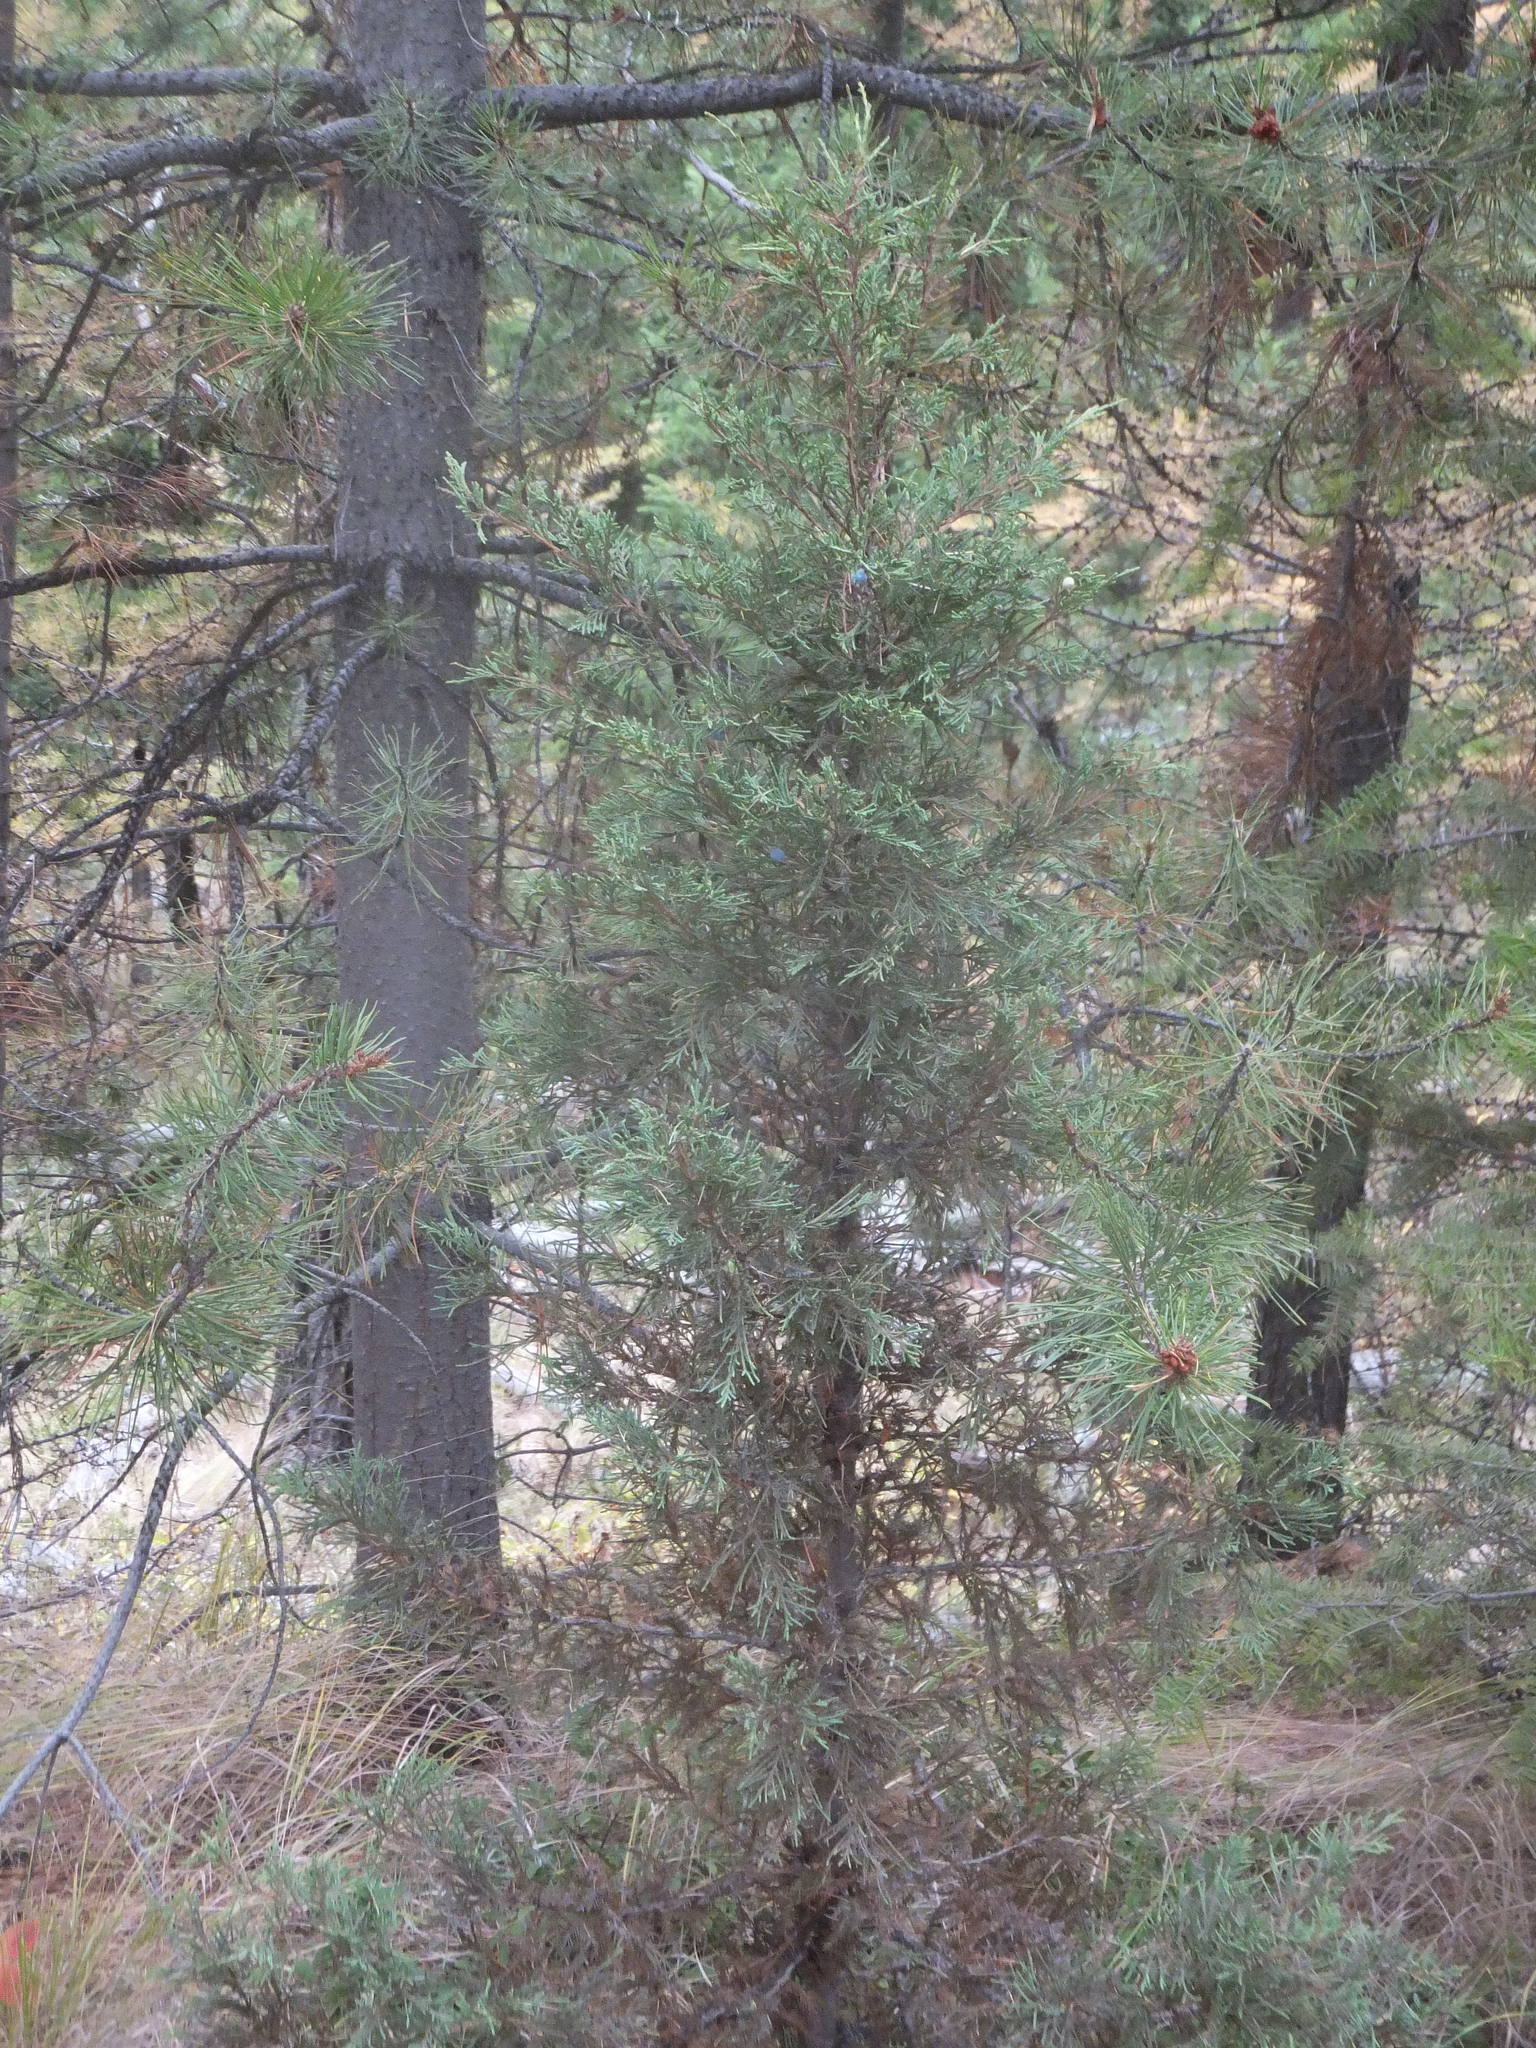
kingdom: Plantae
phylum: Tracheophyta
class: Pinopsida
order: Pinales
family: Cupressaceae
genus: Juniperus
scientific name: Juniperus scopulorum
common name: Rocky mountain juniper
